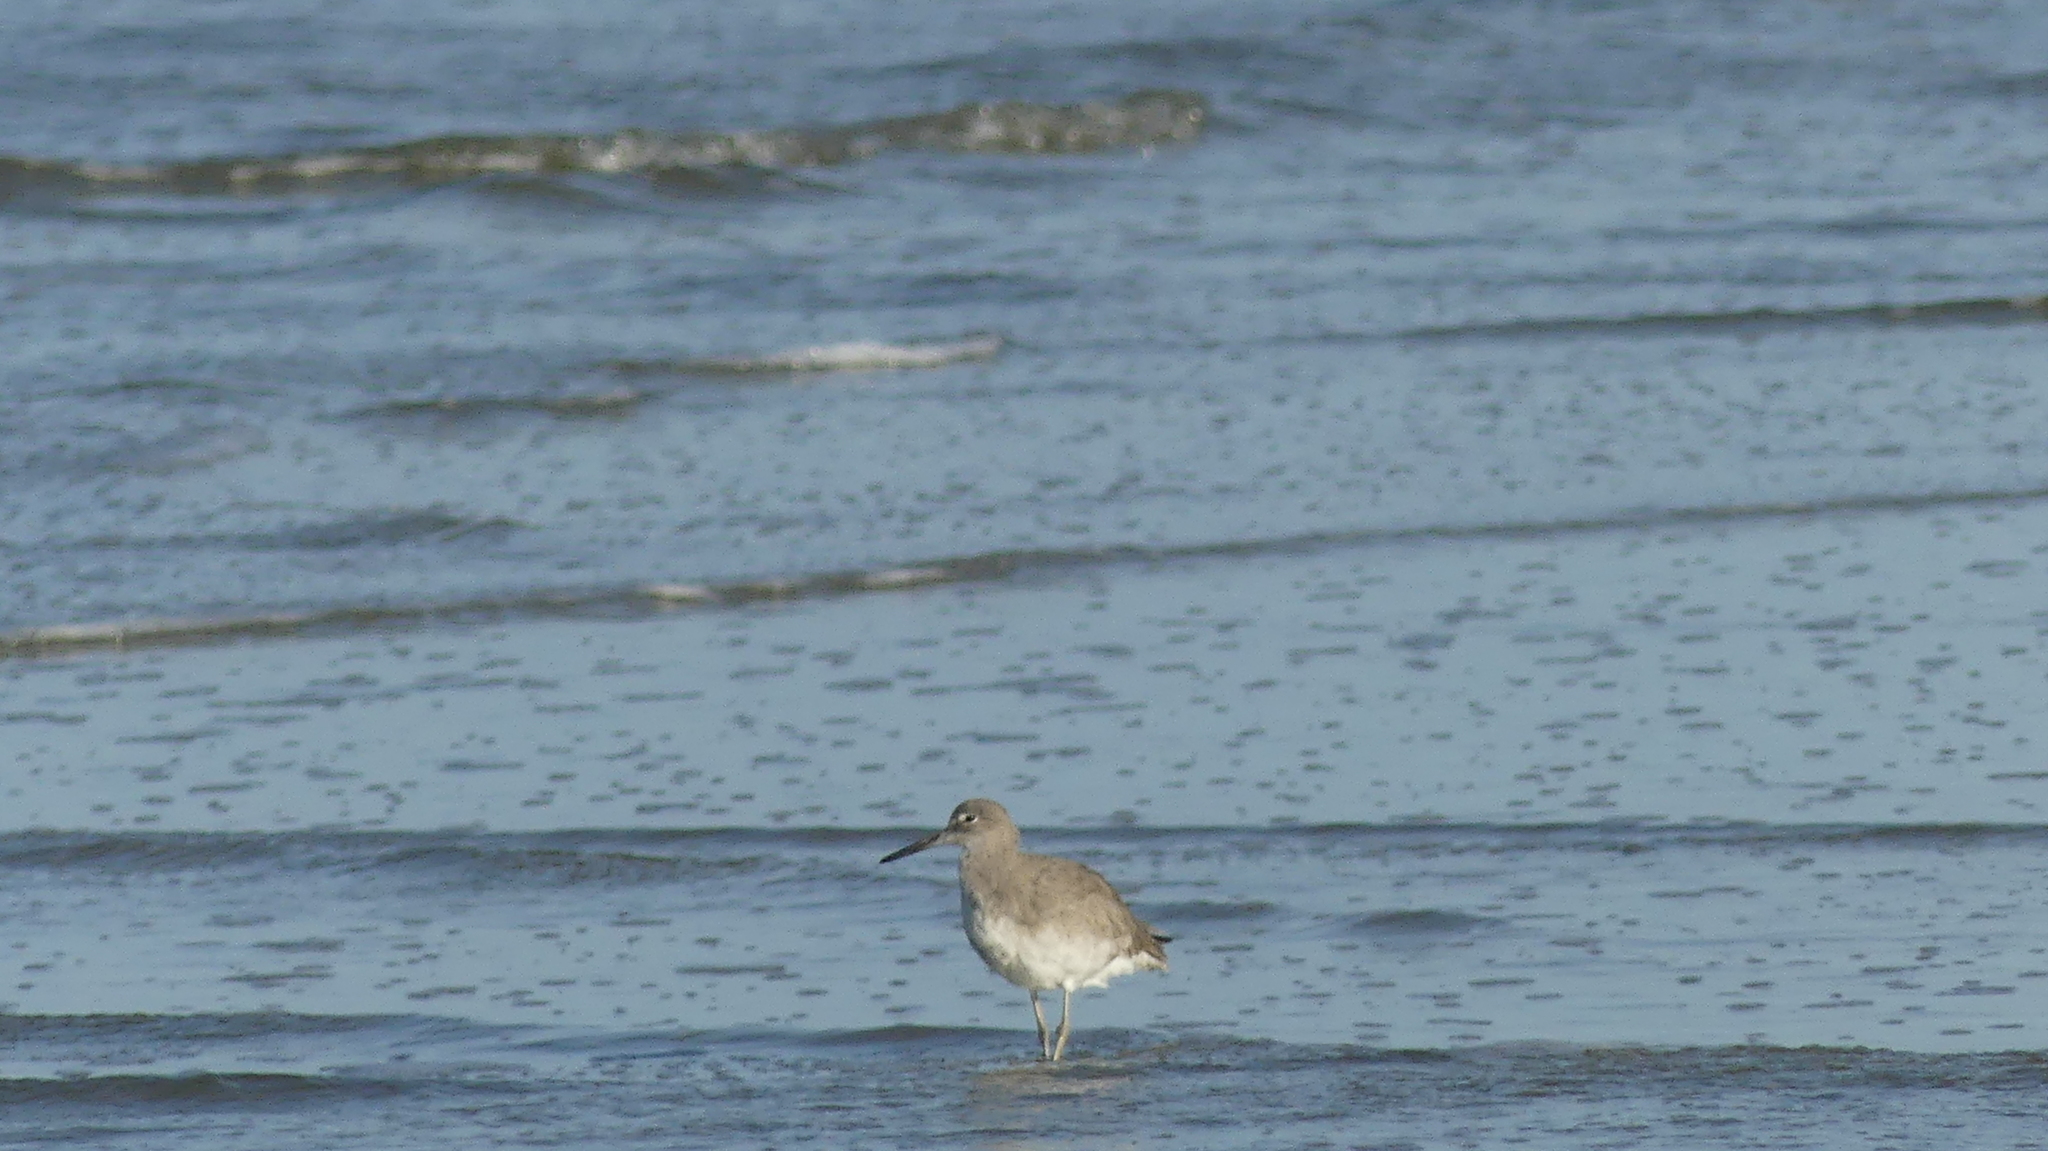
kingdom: Animalia
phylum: Chordata
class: Aves
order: Charadriiformes
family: Scolopacidae
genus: Tringa
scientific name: Tringa semipalmata
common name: Willet
